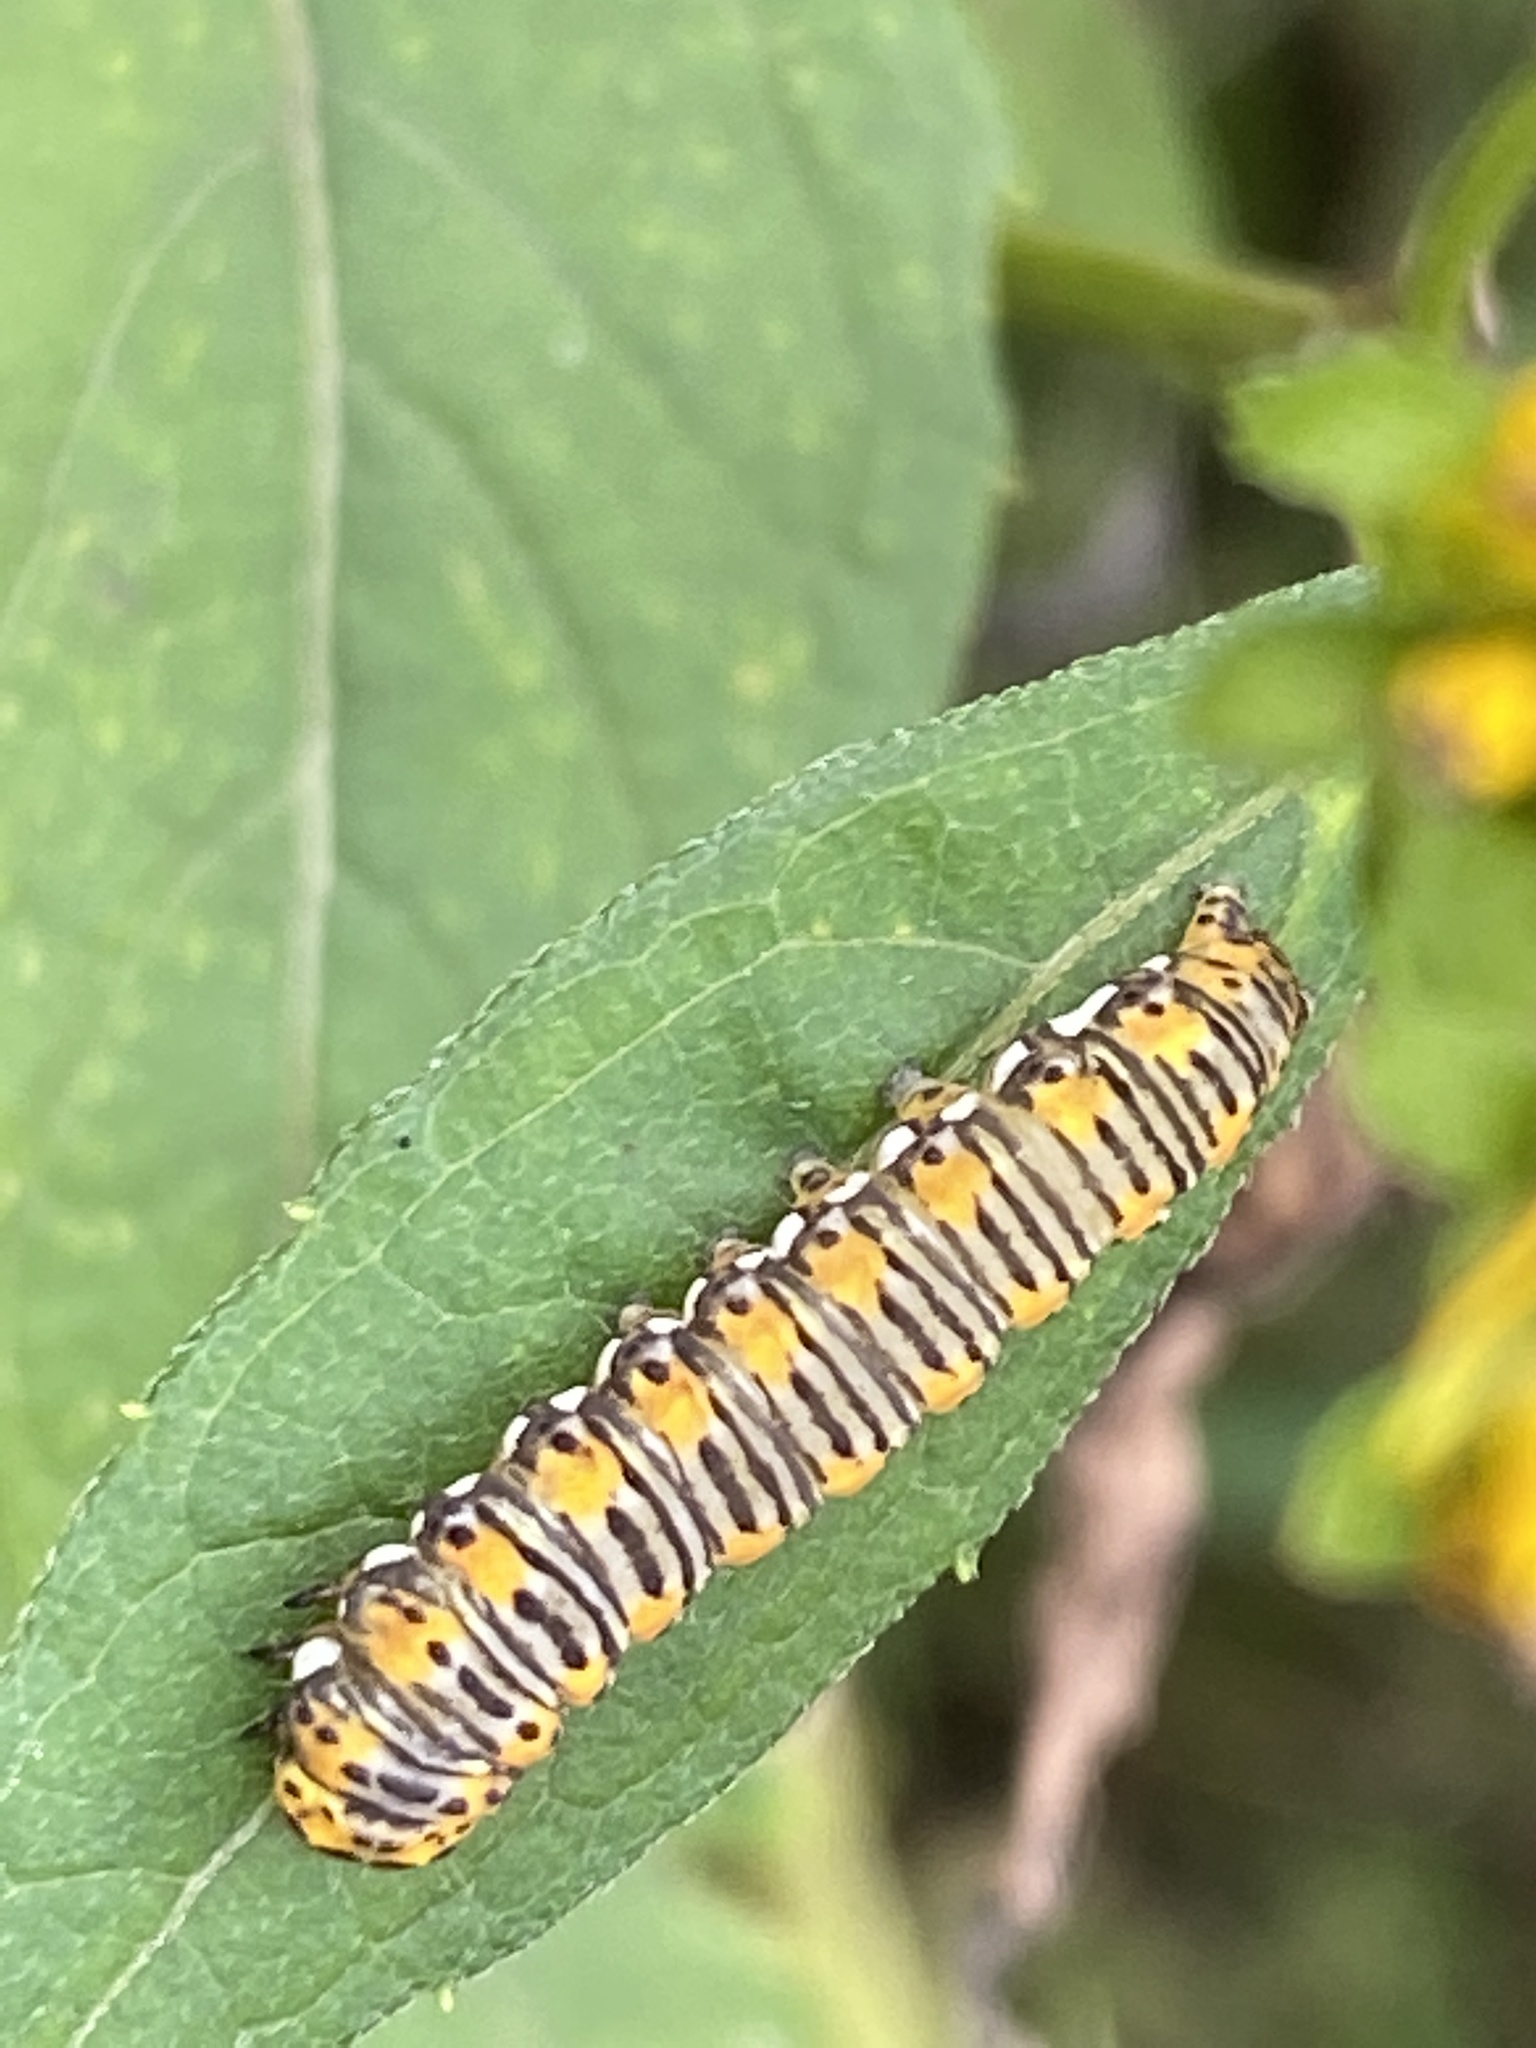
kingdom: Animalia
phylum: Arthropoda
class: Insecta
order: Lepidoptera
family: Noctuidae
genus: Basilodes
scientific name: Basilodes pepita
